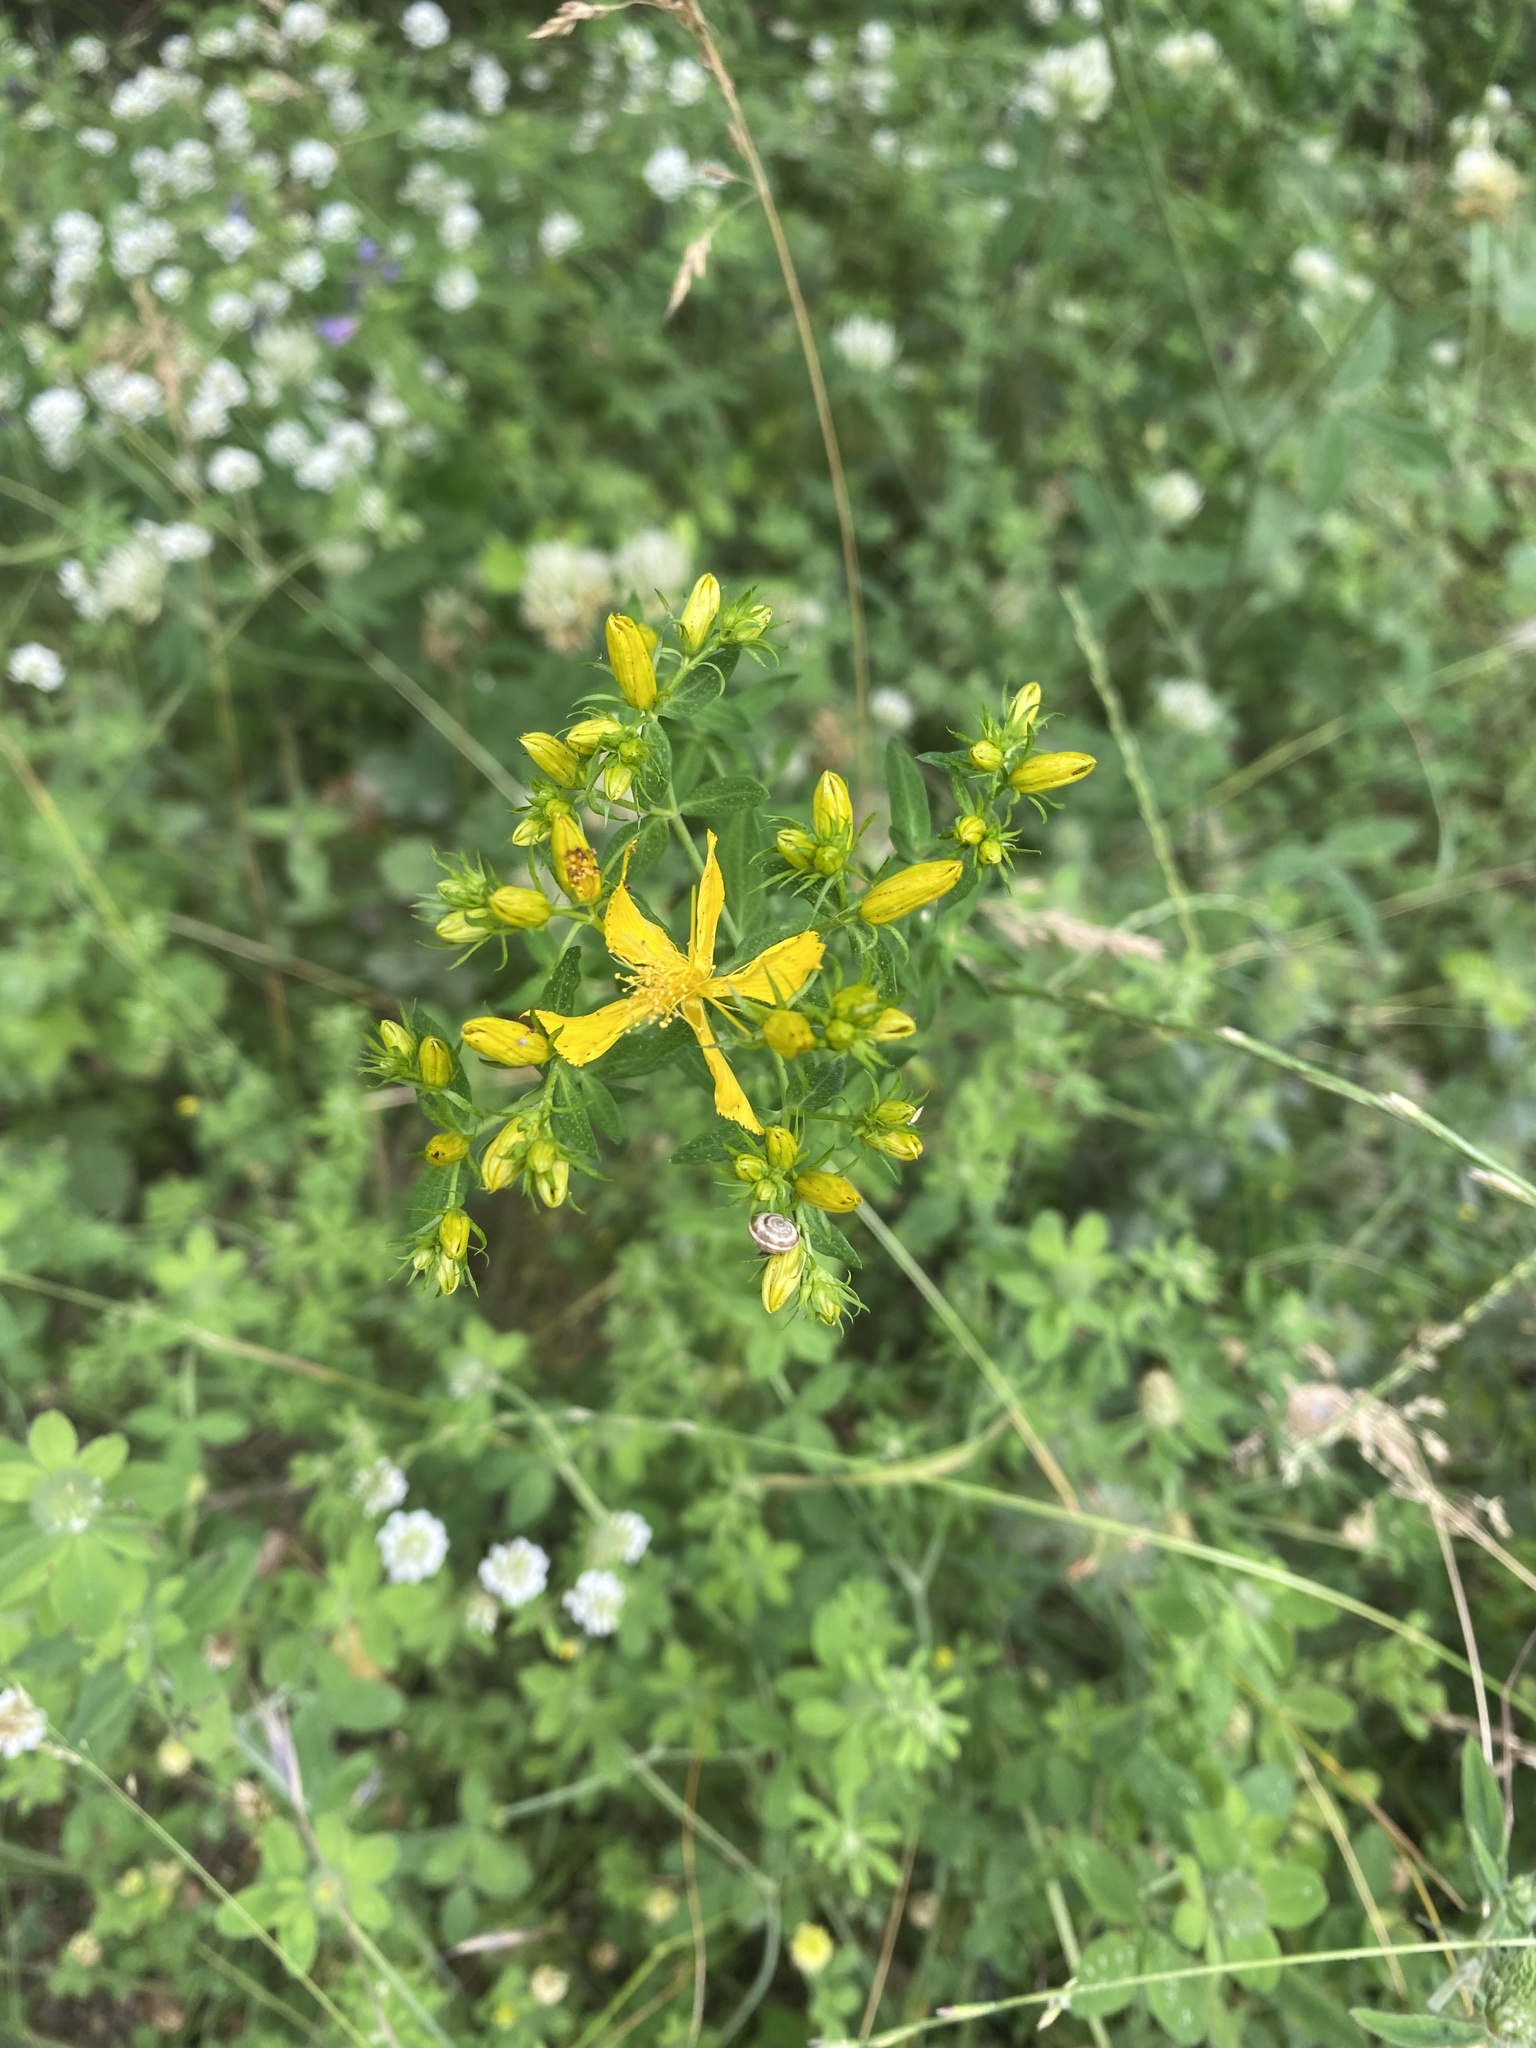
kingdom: Plantae
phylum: Tracheophyta
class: Magnoliopsida
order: Malpighiales
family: Hypericaceae
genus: Hypericum
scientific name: Hypericum perforatum
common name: Common st. johnswort
